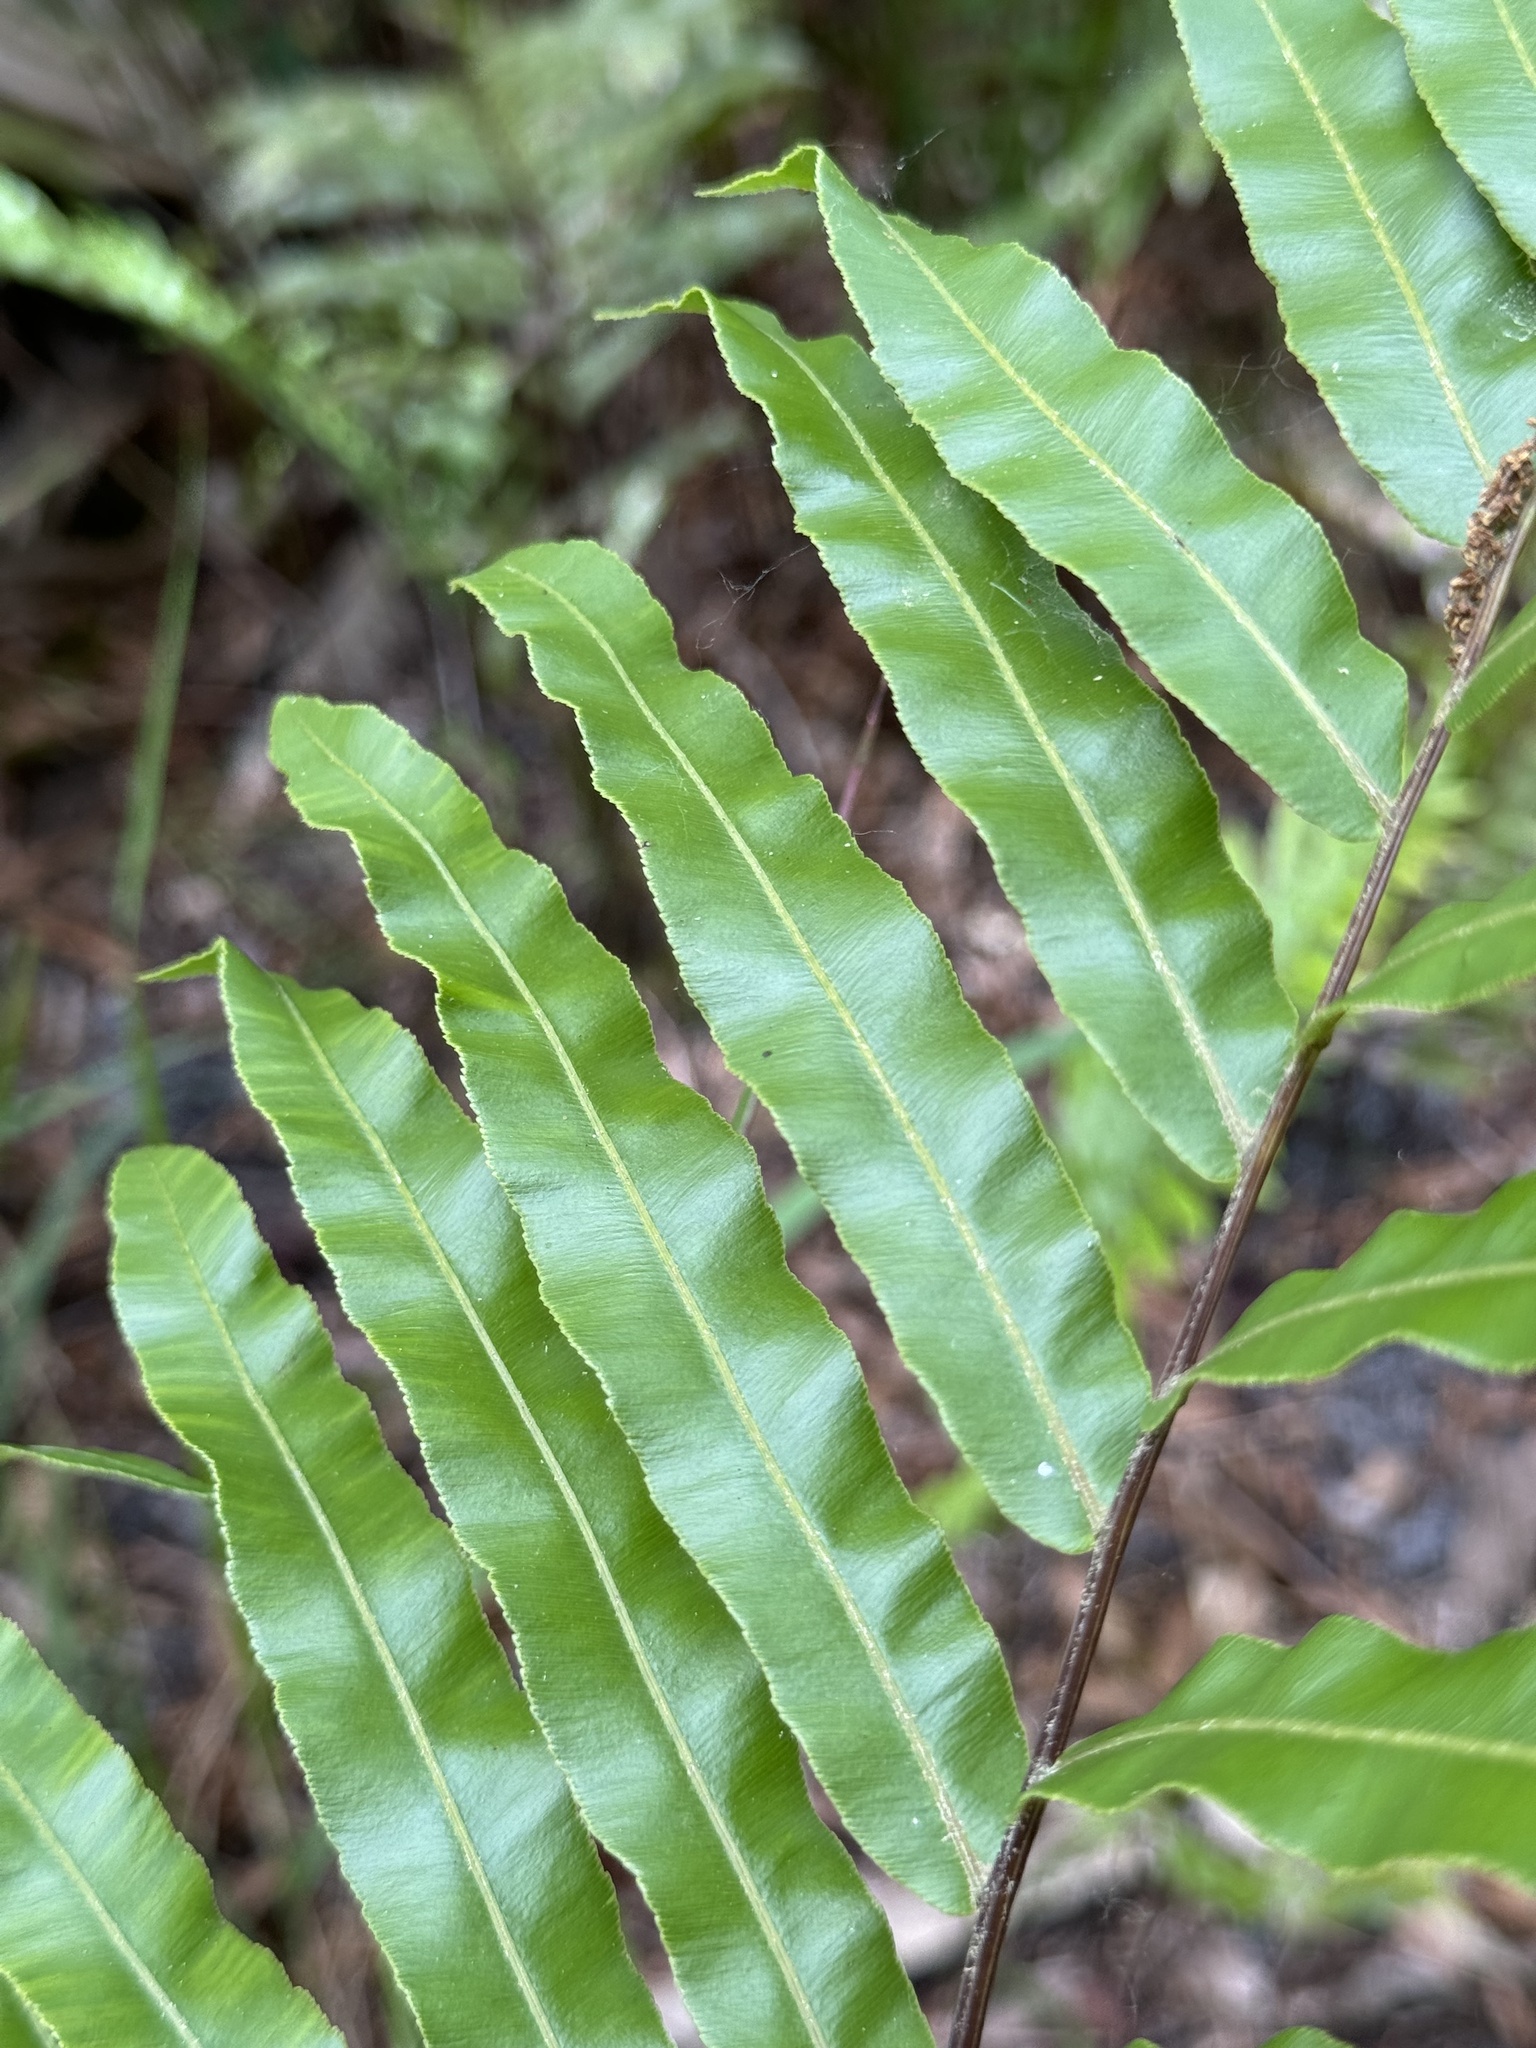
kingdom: Plantae
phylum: Tracheophyta
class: Polypodiopsida
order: Polypodiales
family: Blechnaceae
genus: Telmatoblechnum
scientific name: Telmatoblechnum serrulatum
